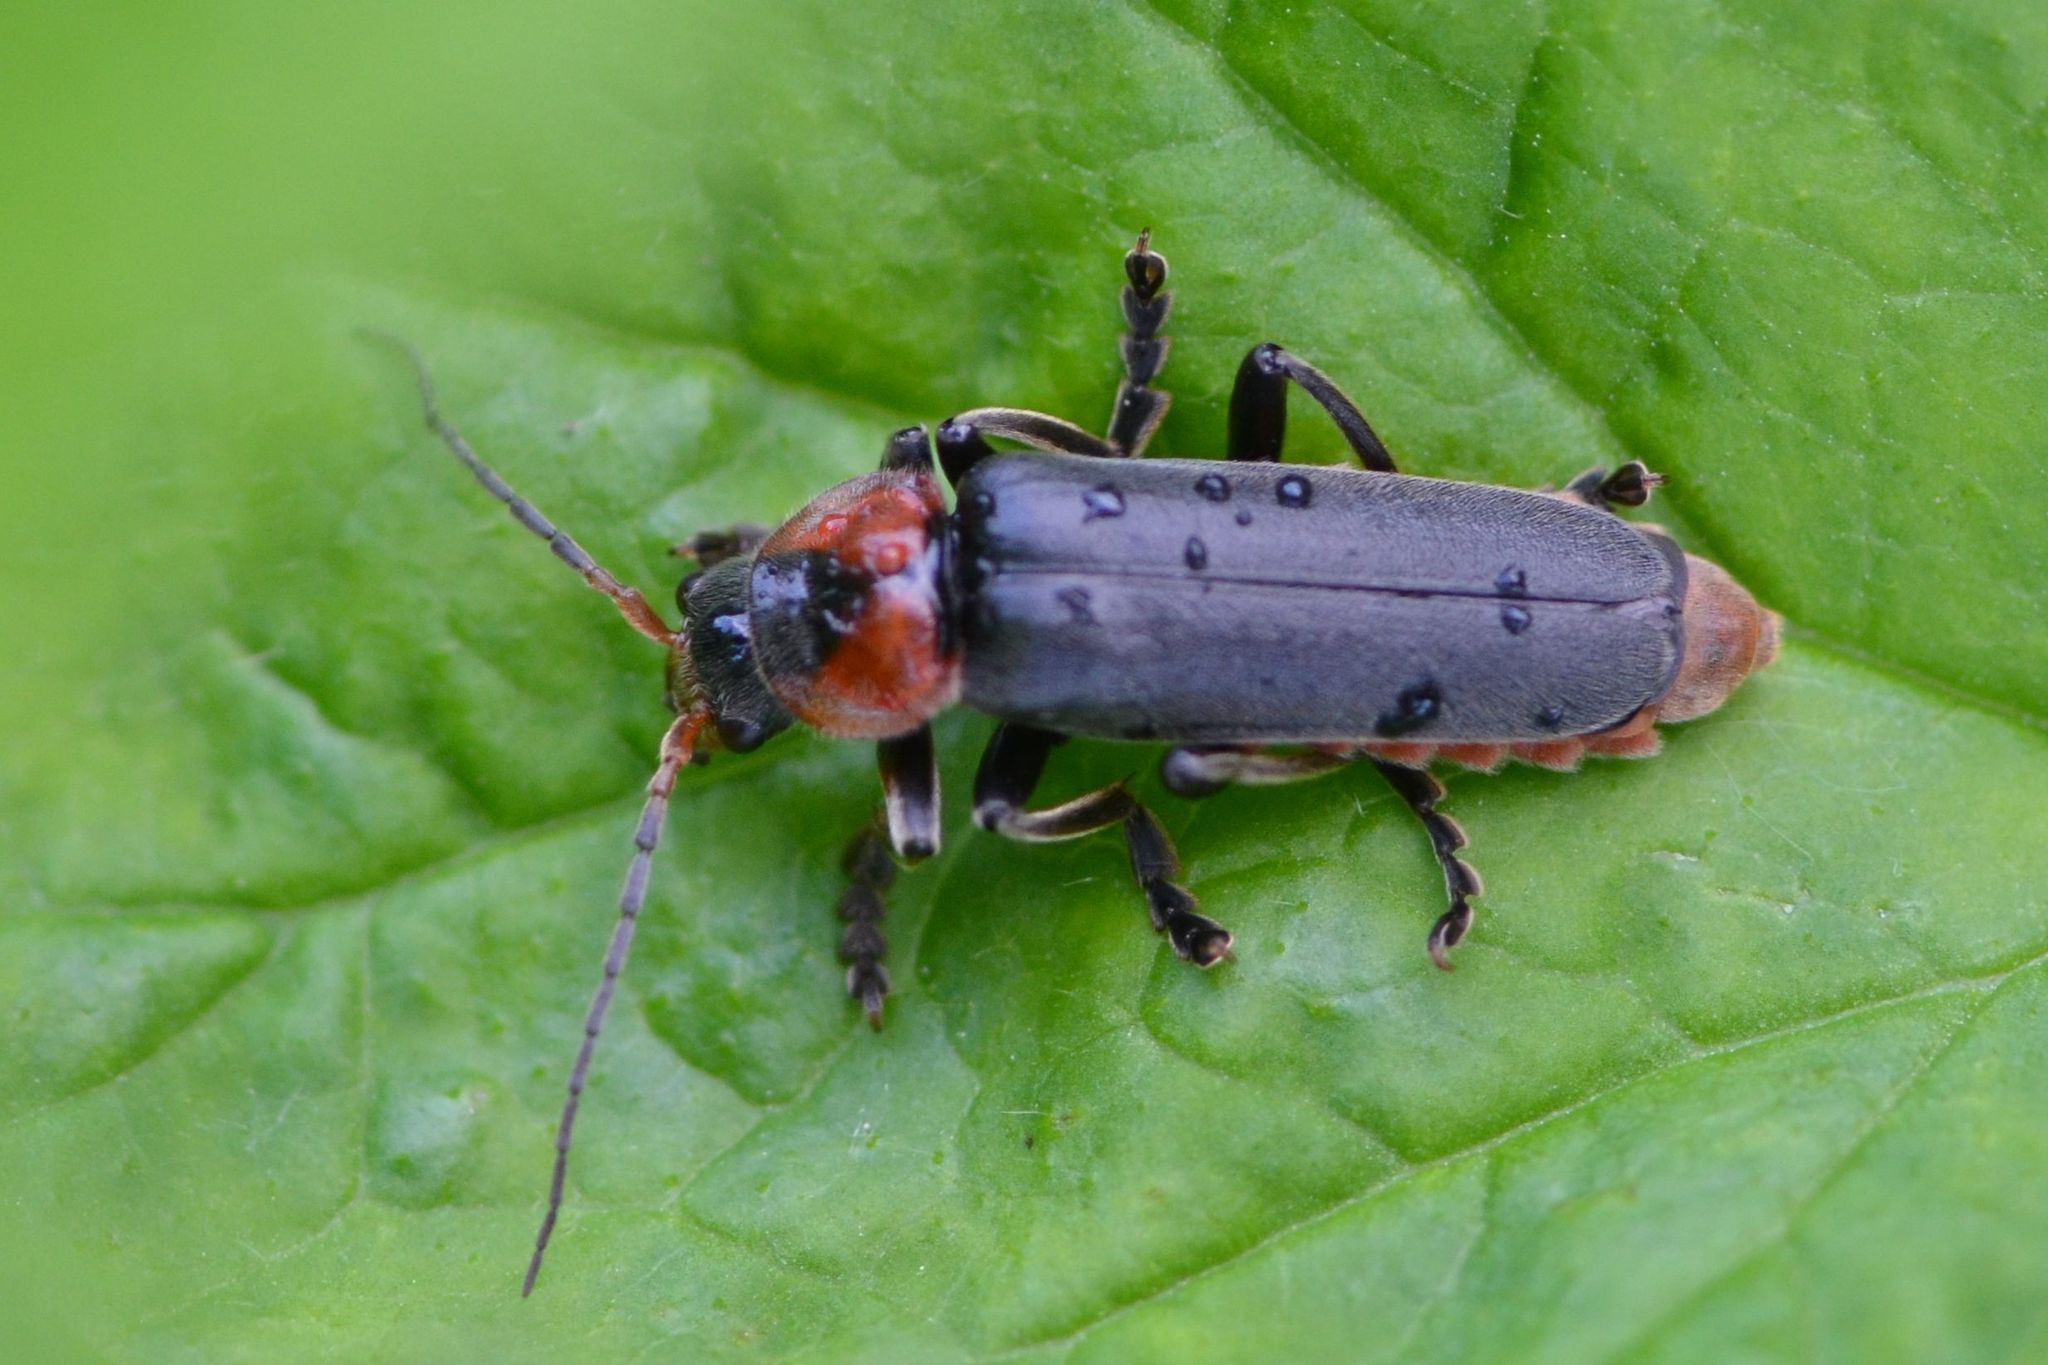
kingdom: Animalia
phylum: Arthropoda
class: Insecta
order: Coleoptera
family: Cantharidae
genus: Cantharis
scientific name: Cantharis fusca
